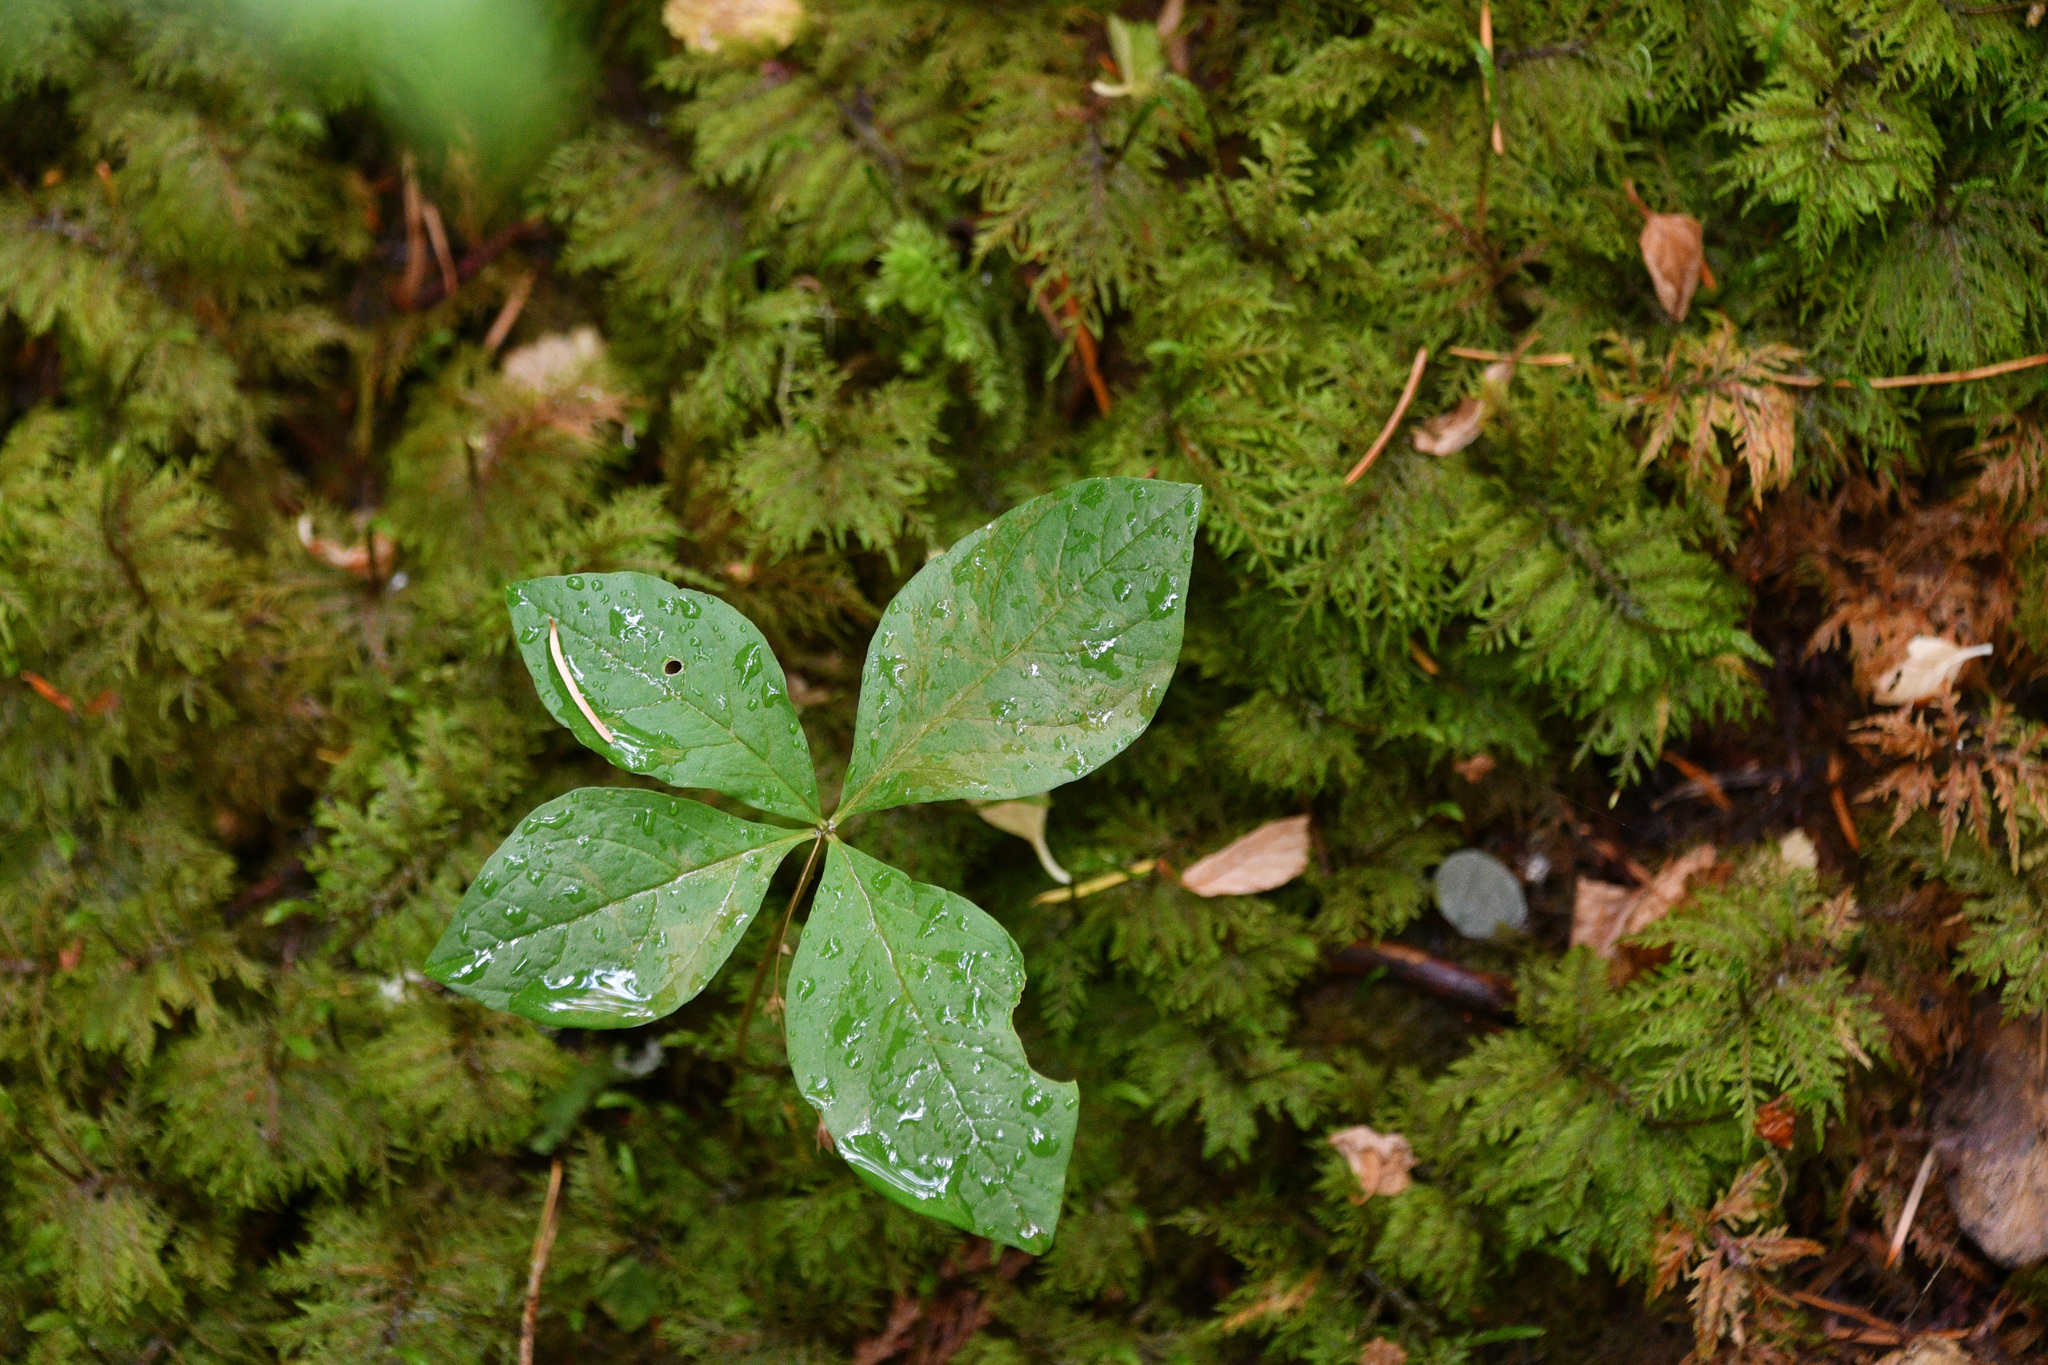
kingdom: Plantae
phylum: Tracheophyta
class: Magnoliopsida
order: Ericales
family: Primulaceae
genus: Lysimachia
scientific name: Lysimachia latifolia
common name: Pacific starflower
